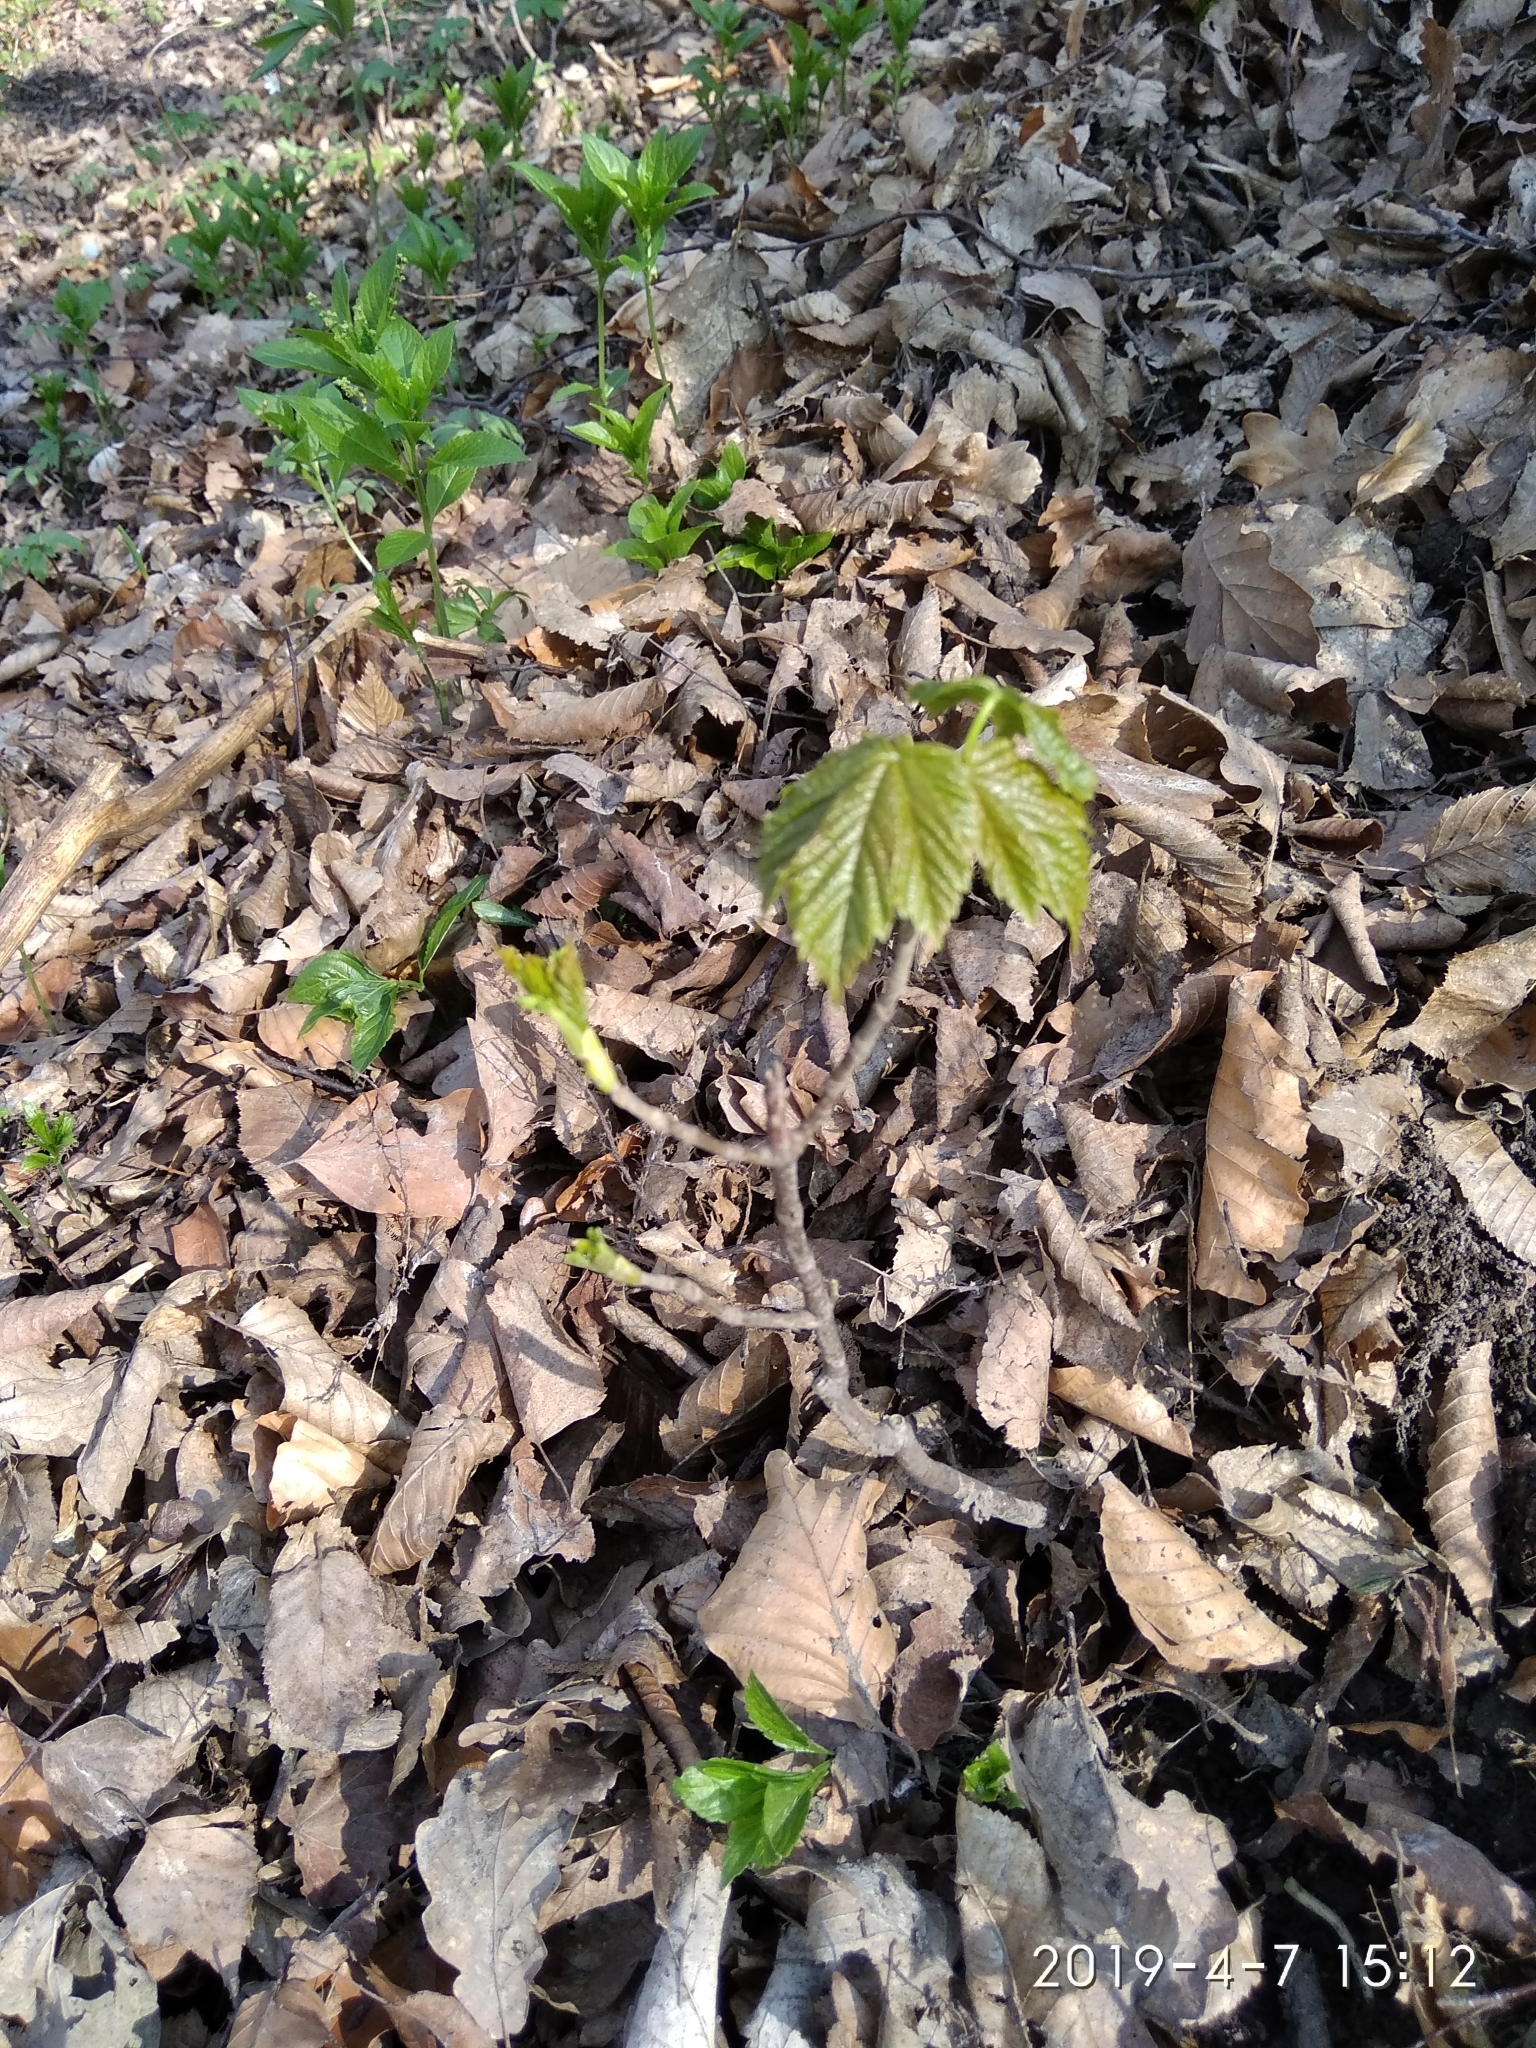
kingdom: Plantae
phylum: Tracheophyta
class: Magnoliopsida
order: Sapindales
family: Sapindaceae
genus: Acer
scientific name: Acer pseudoplatanus
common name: Sycamore
